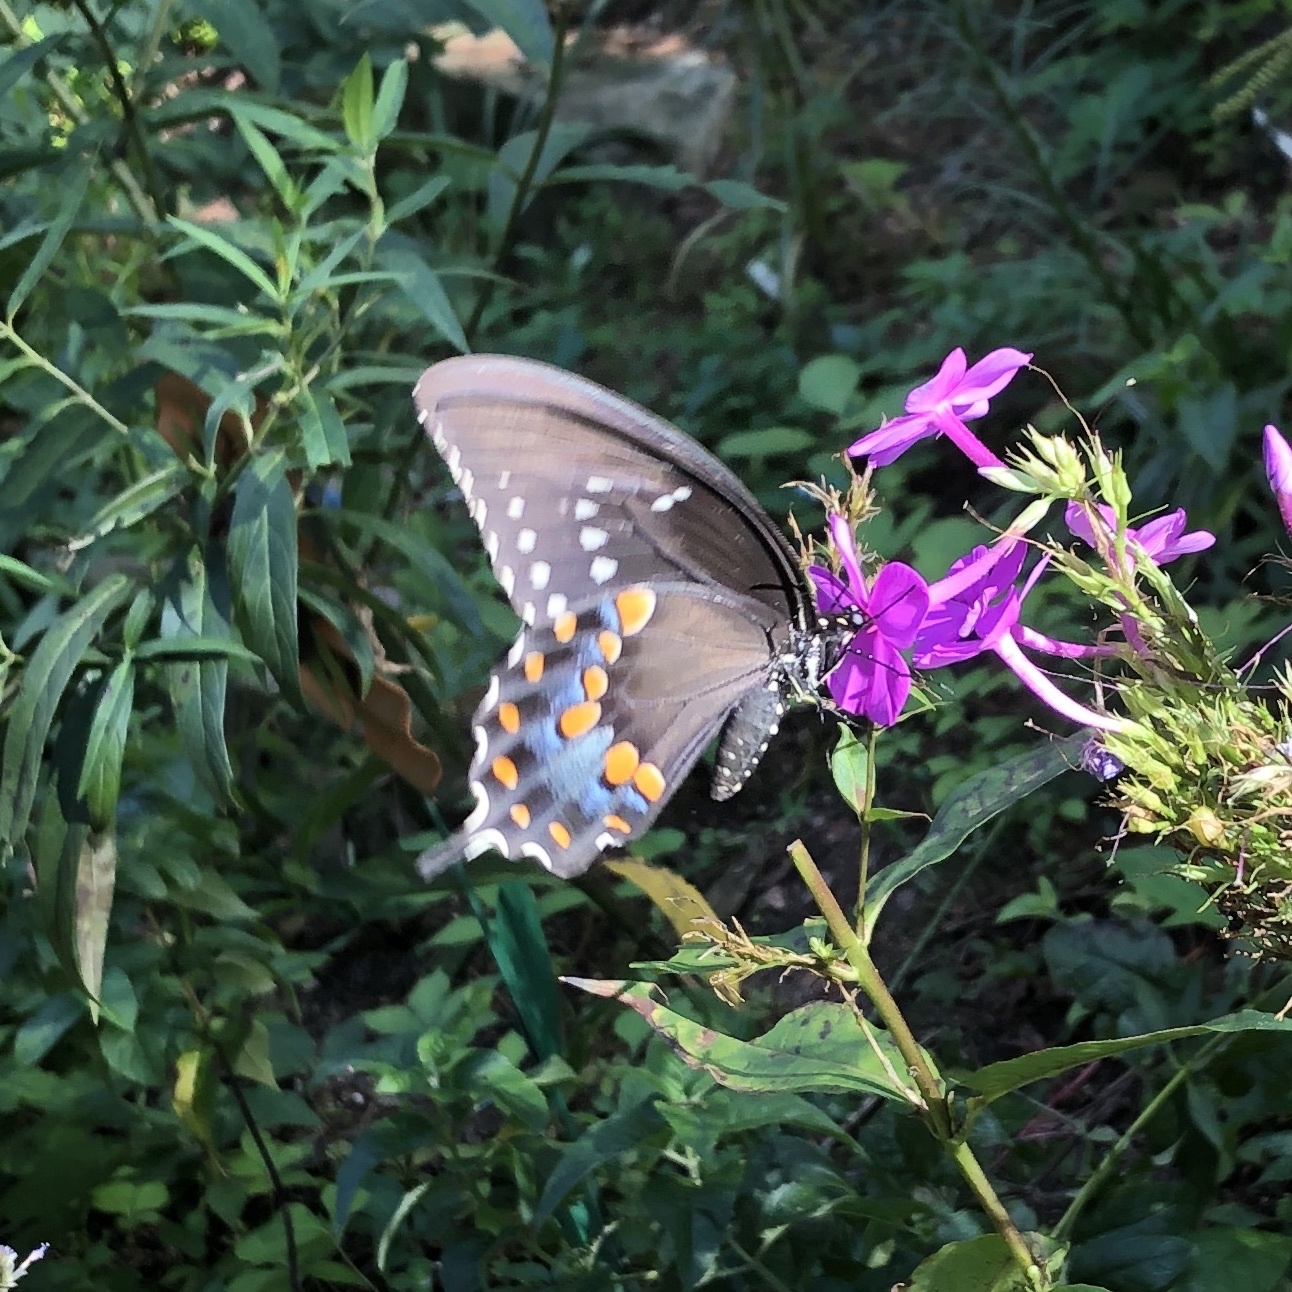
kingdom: Animalia
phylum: Arthropoda
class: Insecta
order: Lepidoptera
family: Papilionidae
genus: Papilio
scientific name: Papilio troilus
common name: Spicebush swallowtail
